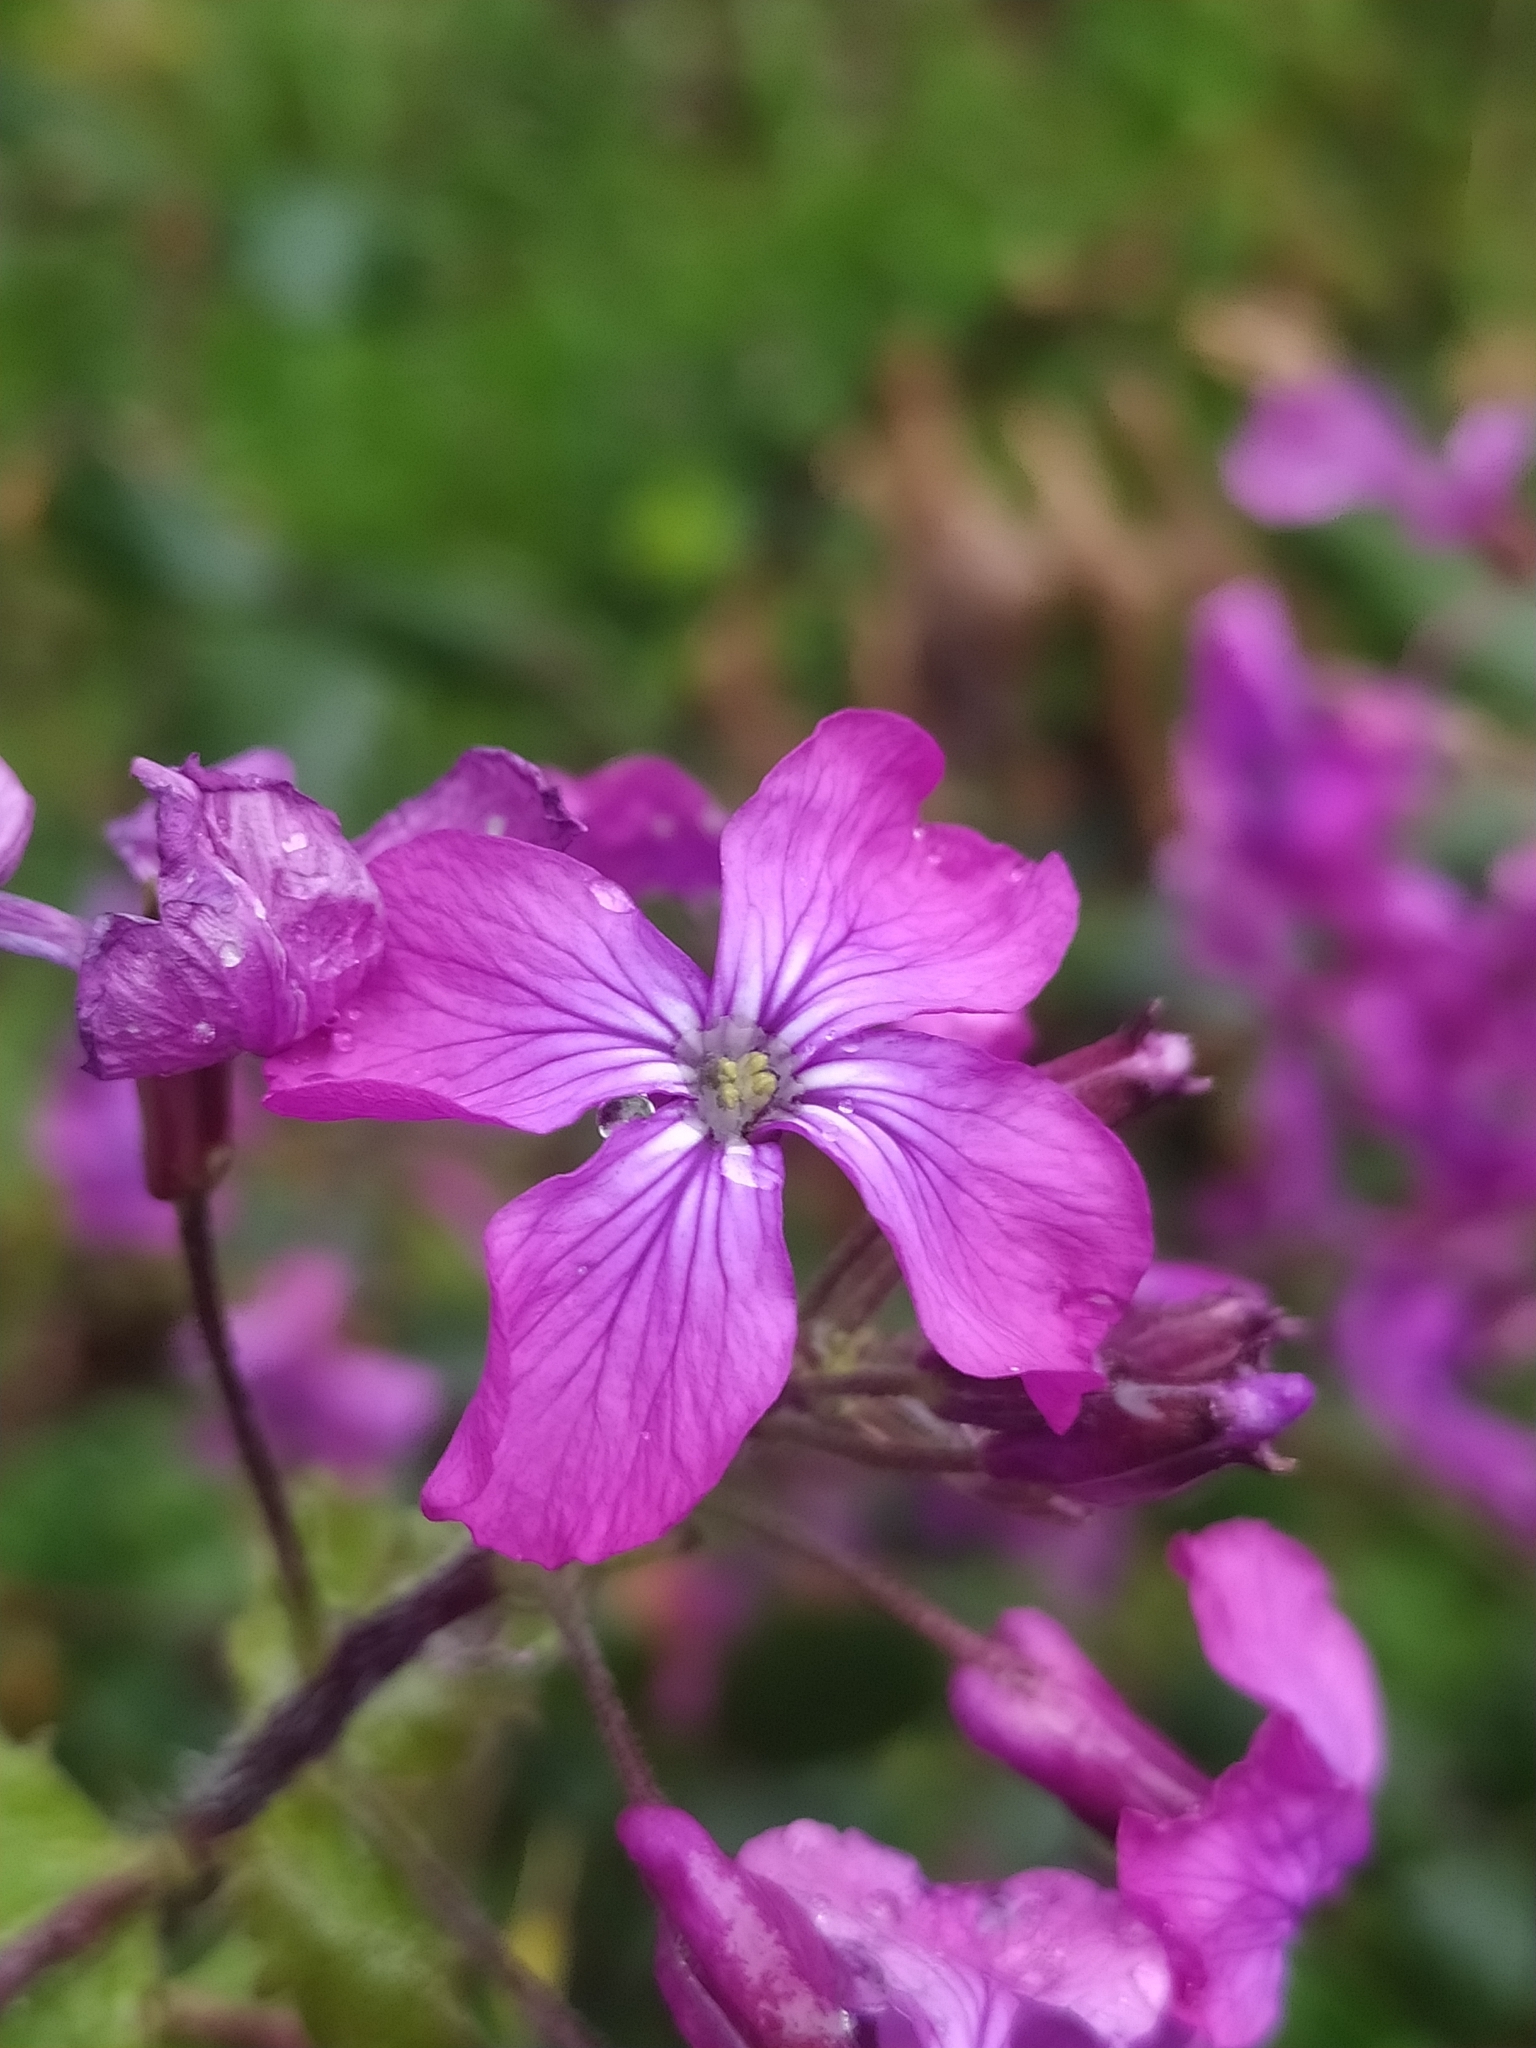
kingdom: Plantae
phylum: Tracheophyta
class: Magnoliopsida
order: Brassicales
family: Brassicaceae
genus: Lunaria
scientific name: Lunaria annua
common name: Honesty
